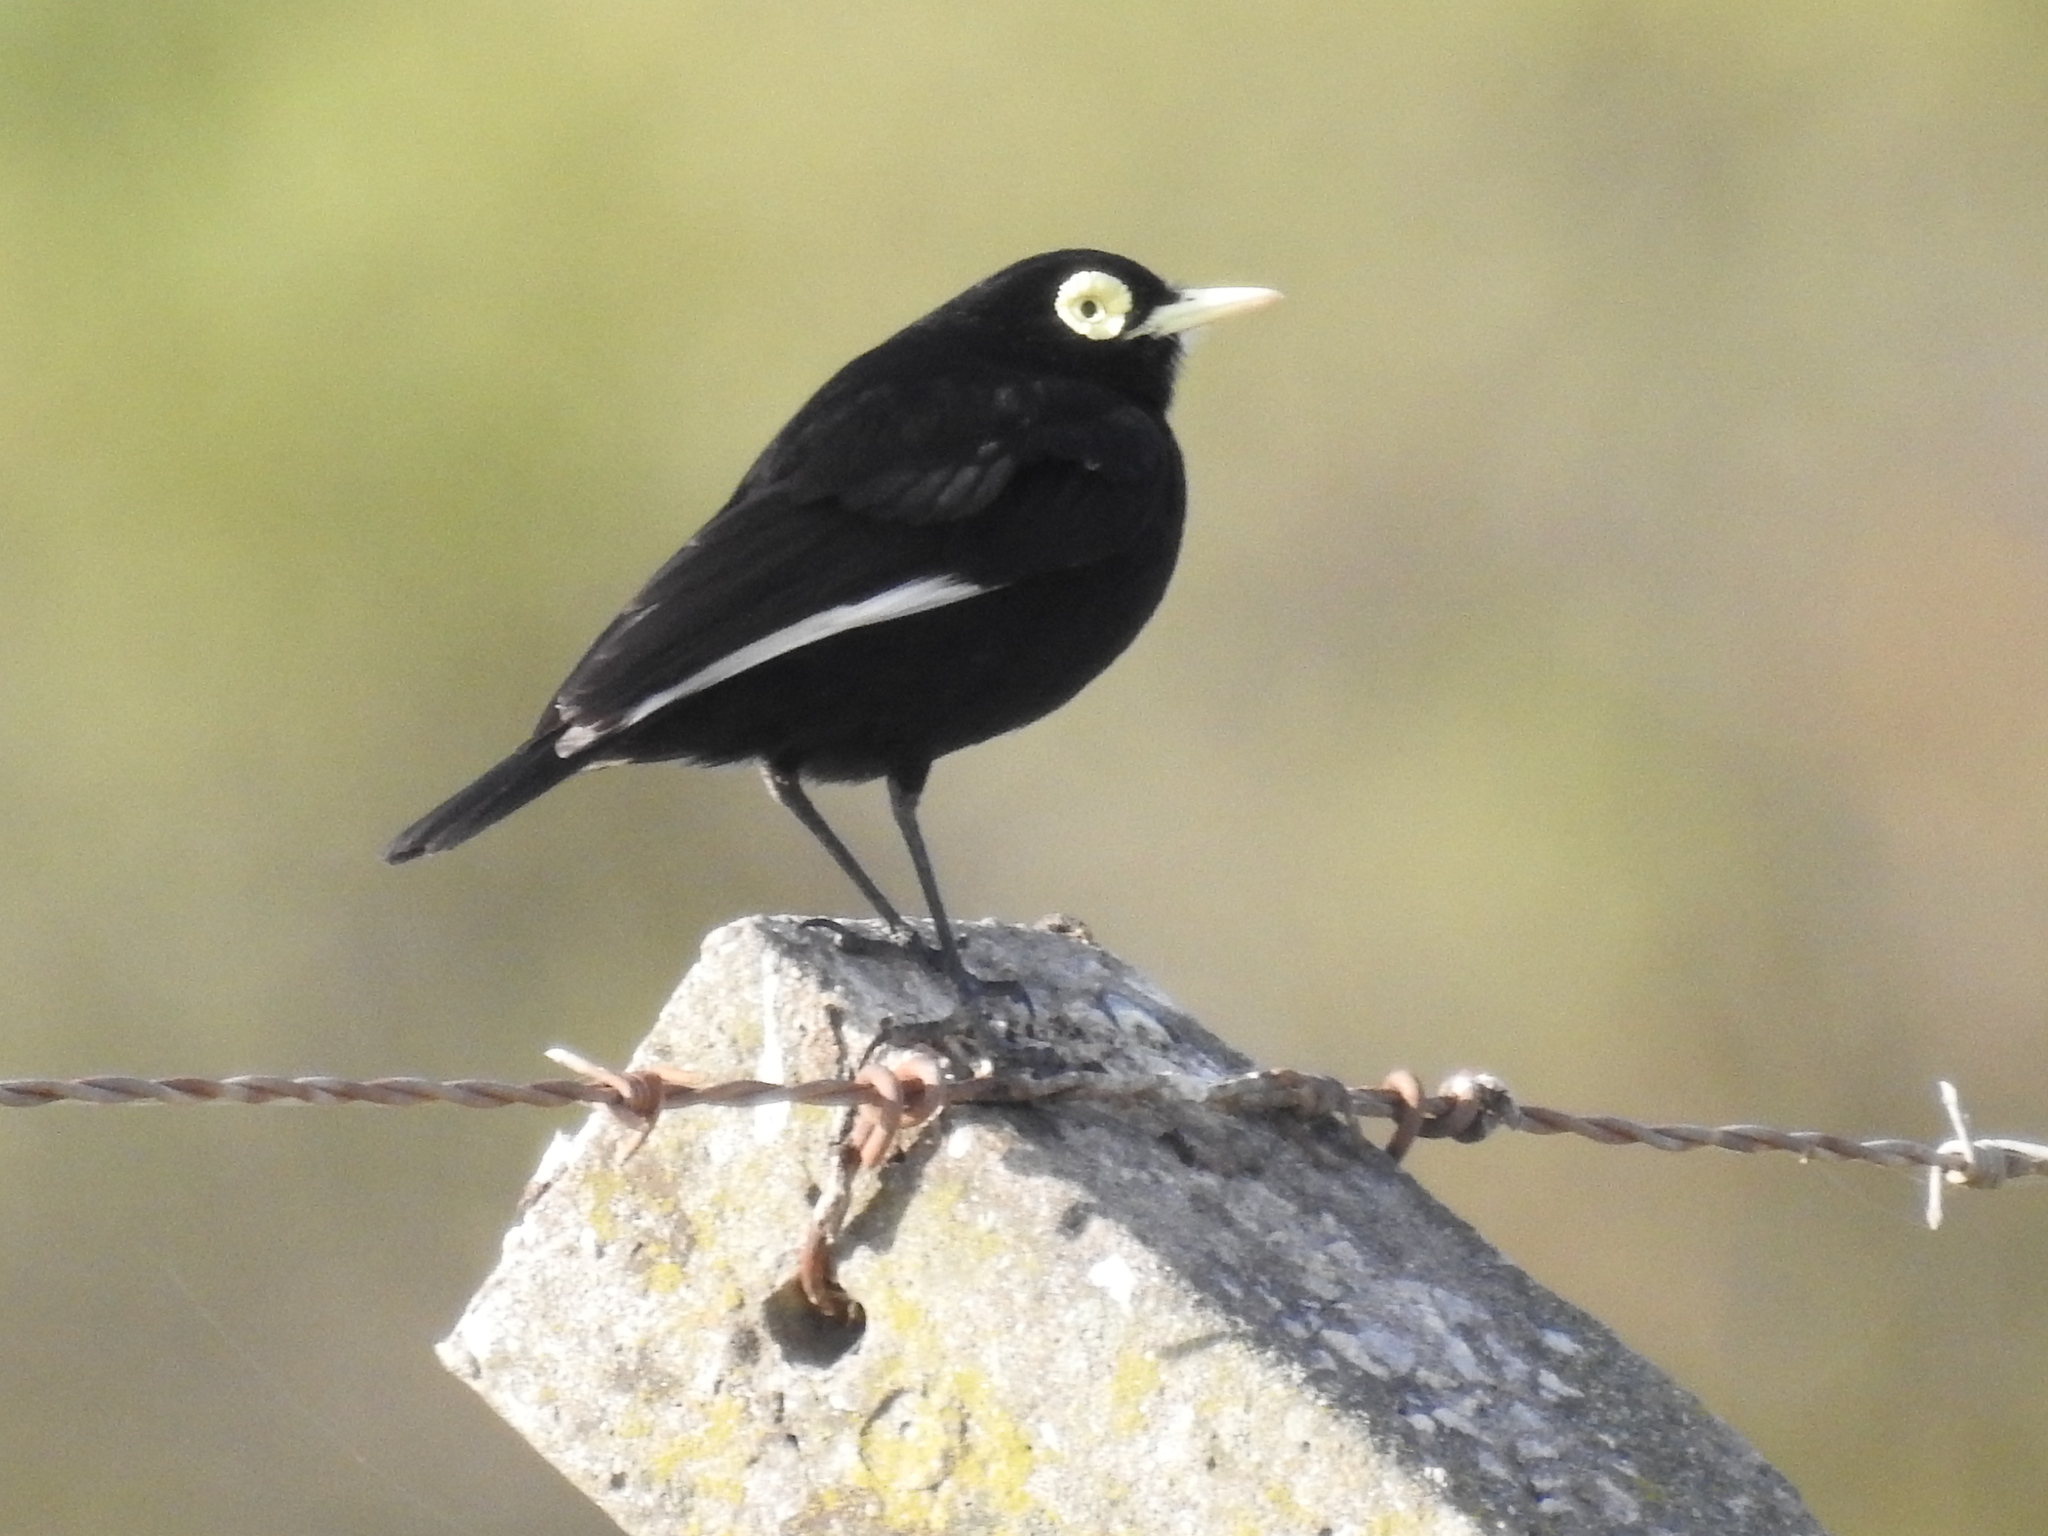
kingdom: Animalia
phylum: Chordata
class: Aves
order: Passeriformes
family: Tyrannidae
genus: Hymenops
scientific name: Hymenops perspicillatus
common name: Spectacled tyrant
